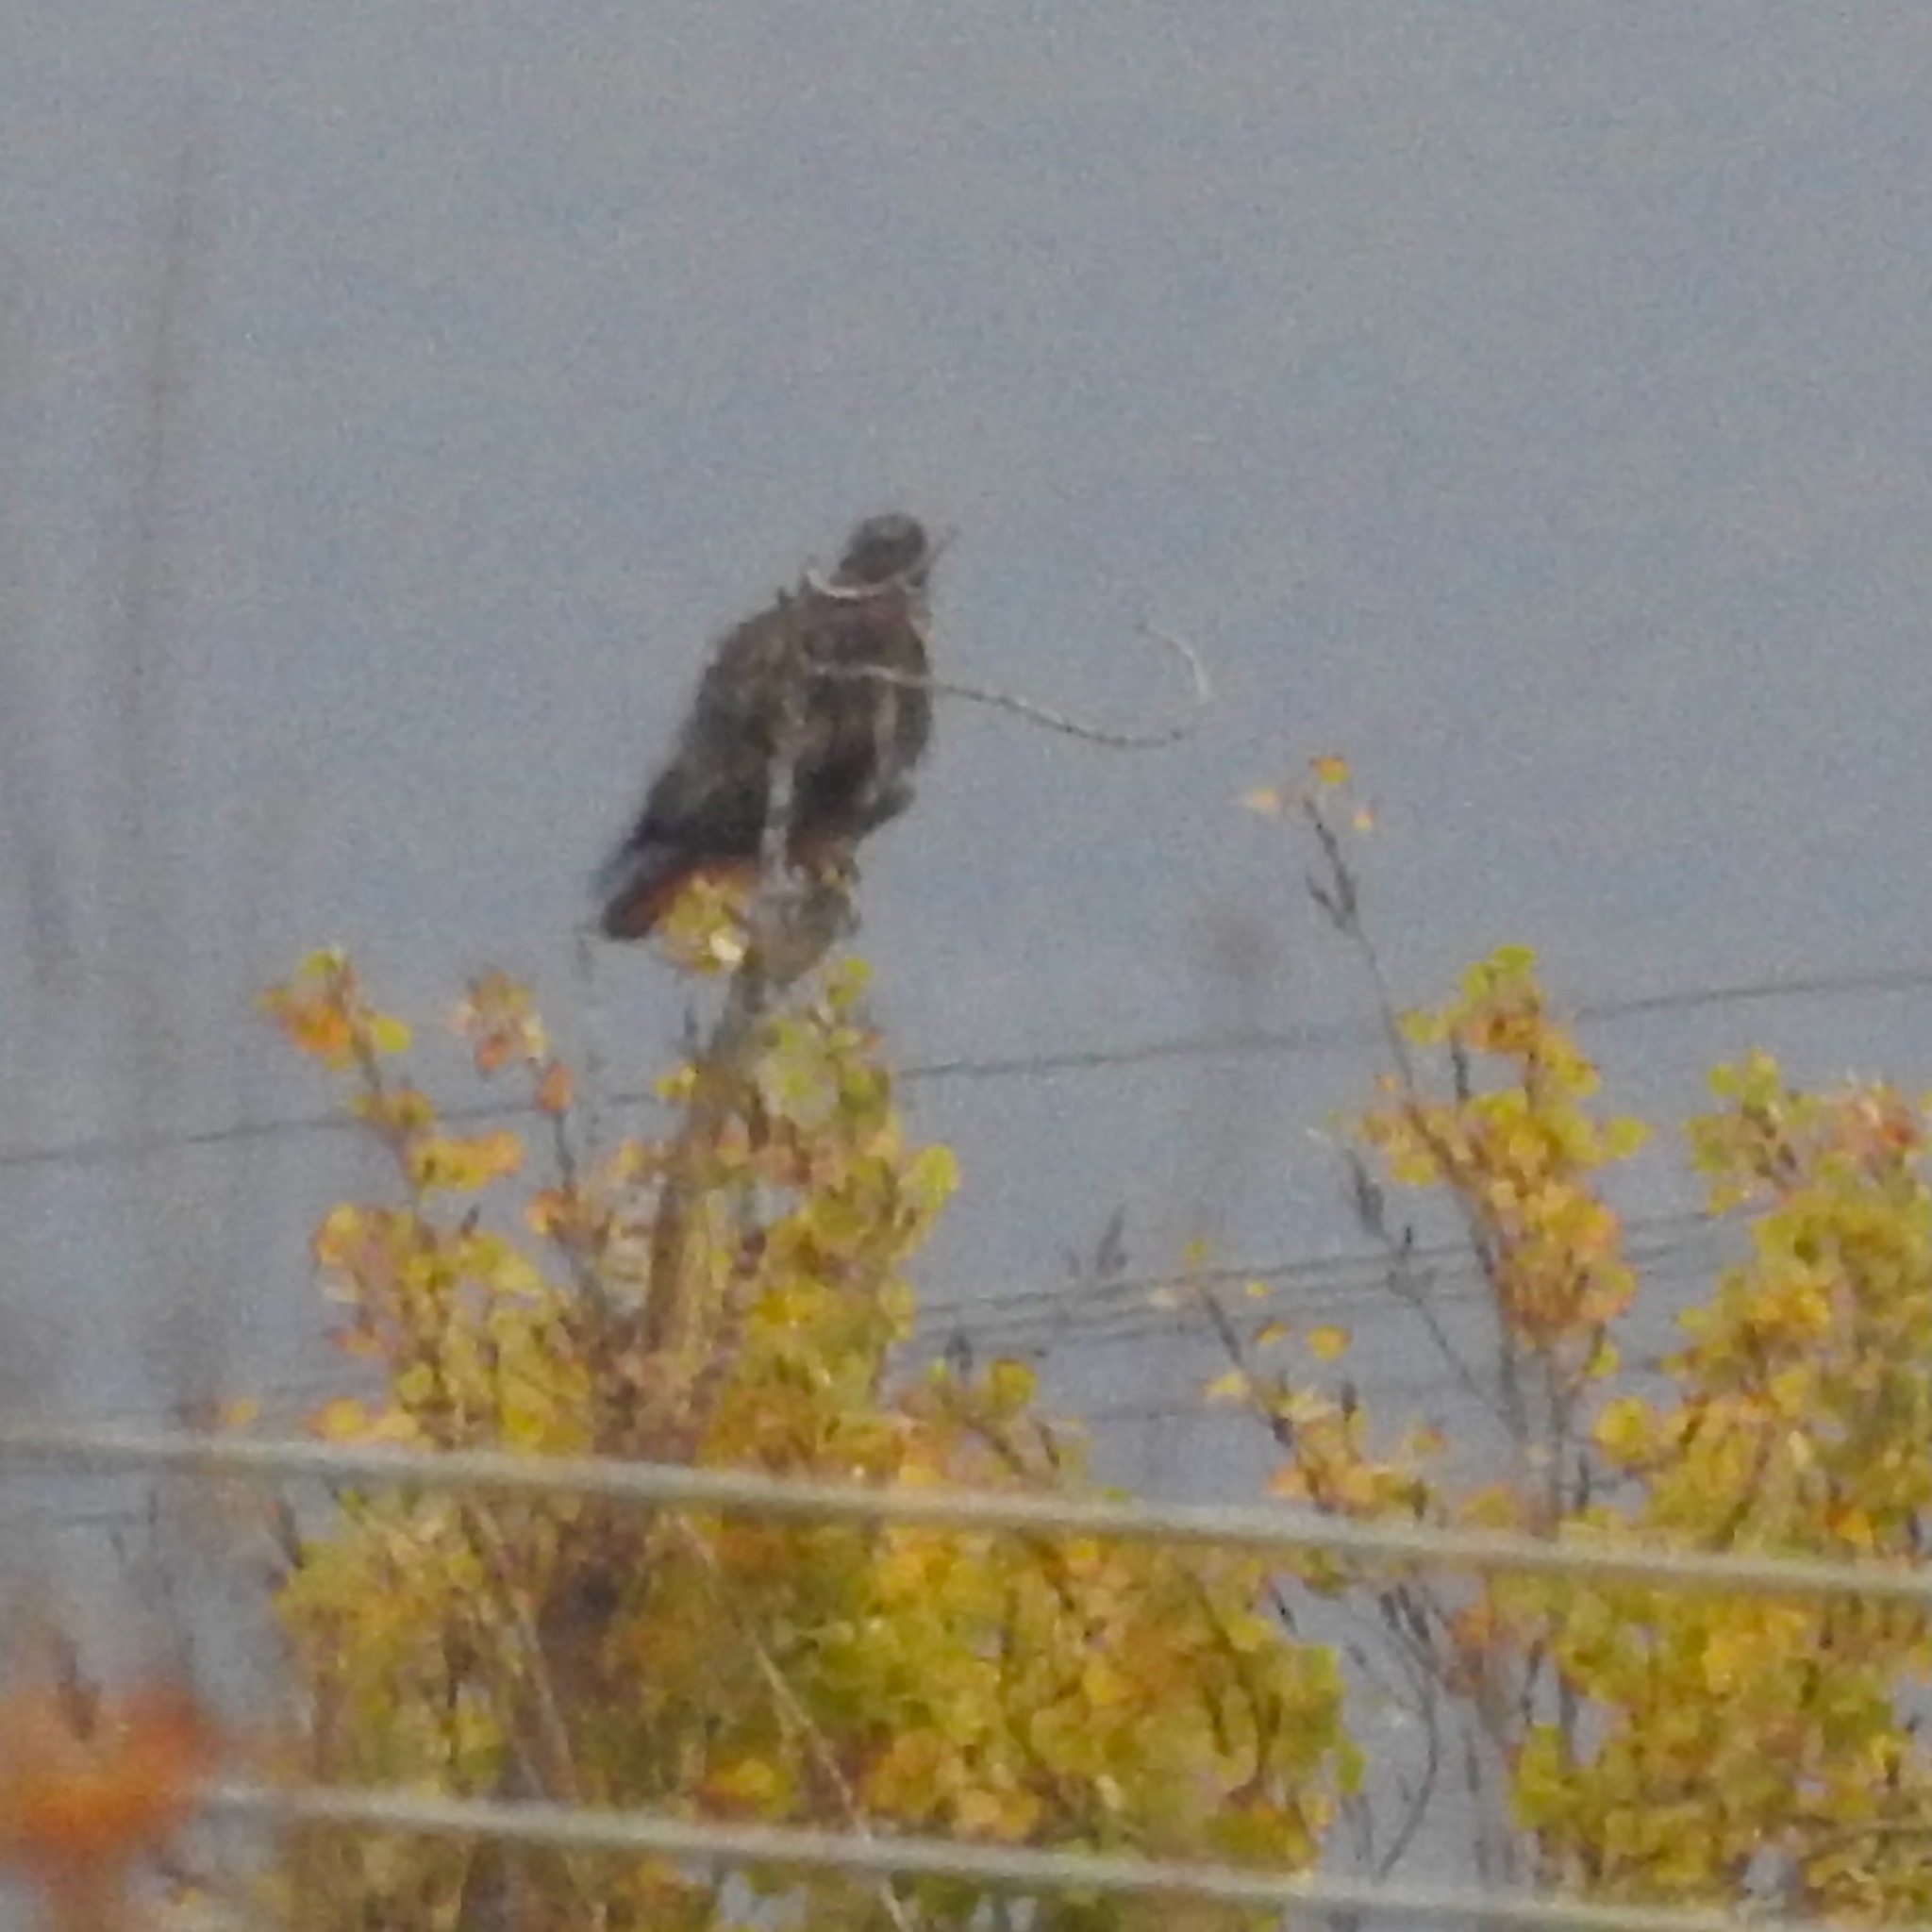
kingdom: Animalia
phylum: Chordata
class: Aves
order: Accipitriformes
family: Accipitridae
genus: Buteo
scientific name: Buteo jamaicensis
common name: Red-tailed hawk
